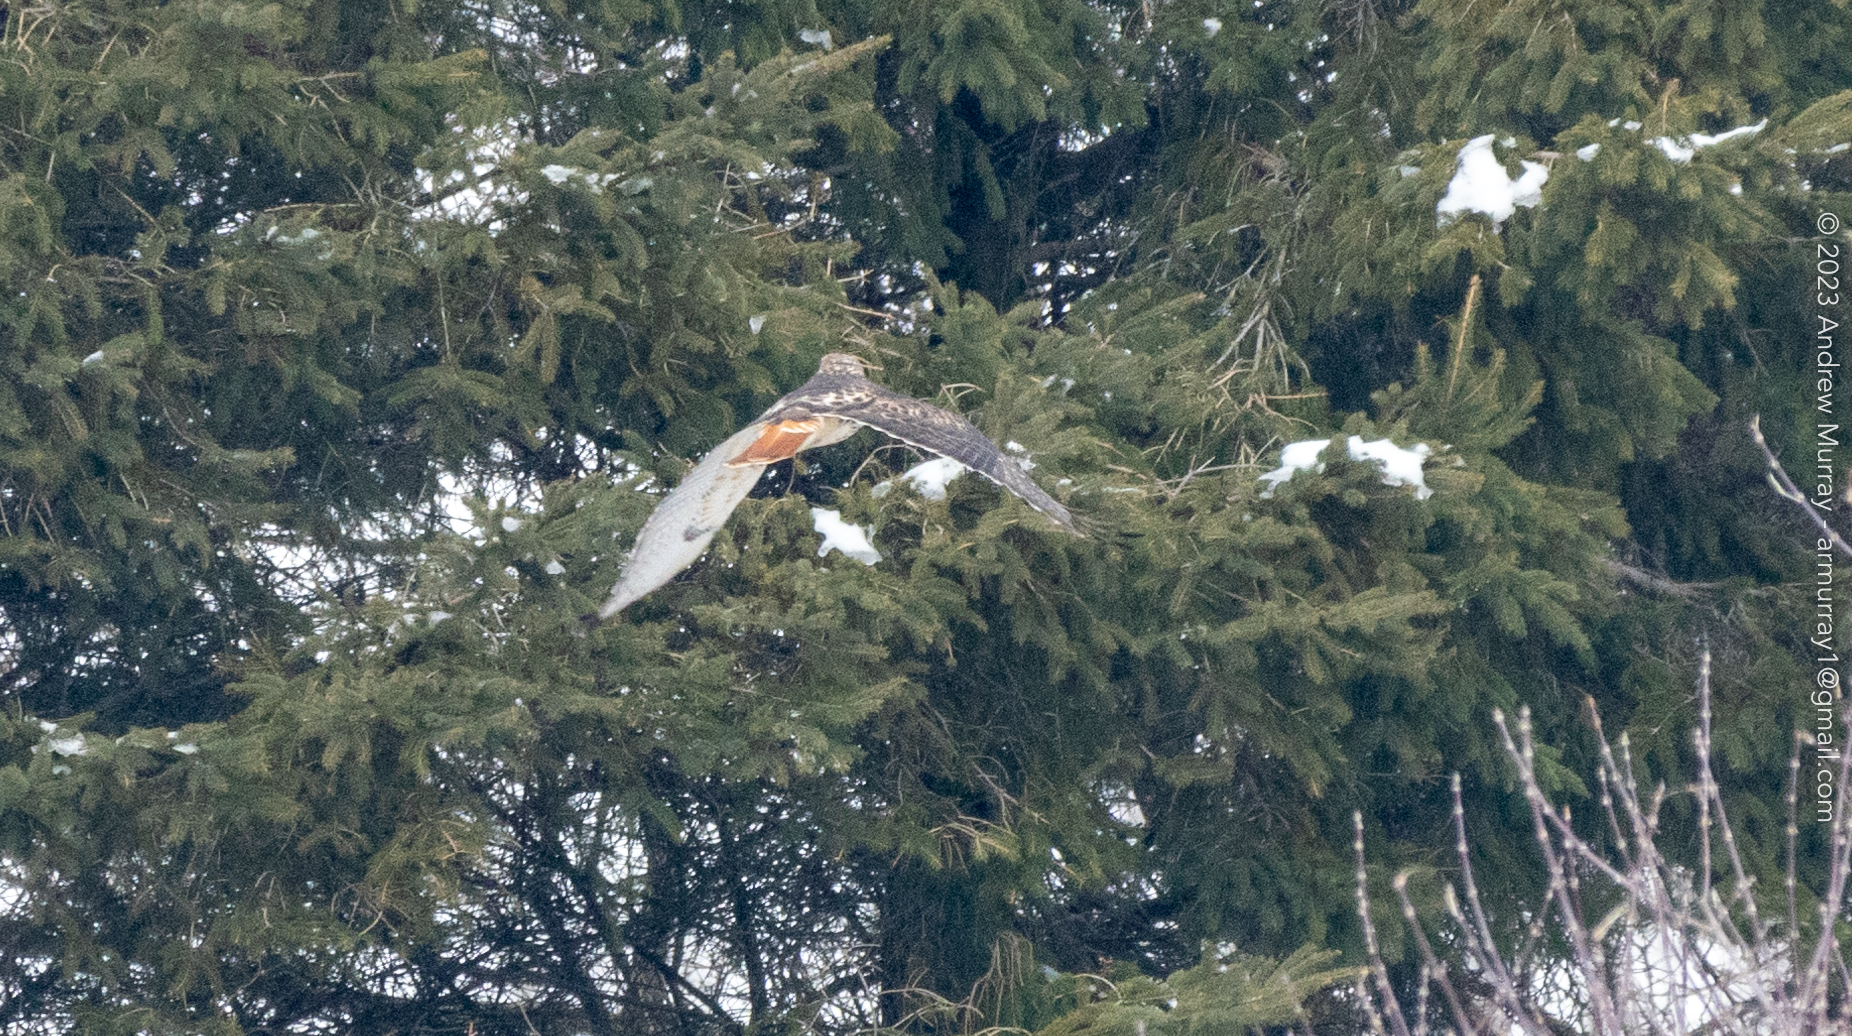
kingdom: Animalia
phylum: Chordata
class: Aves
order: Accipitriformes
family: Accipitridae
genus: Buteo
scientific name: Buteo jamaicensis
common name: Red-tailed hawk
